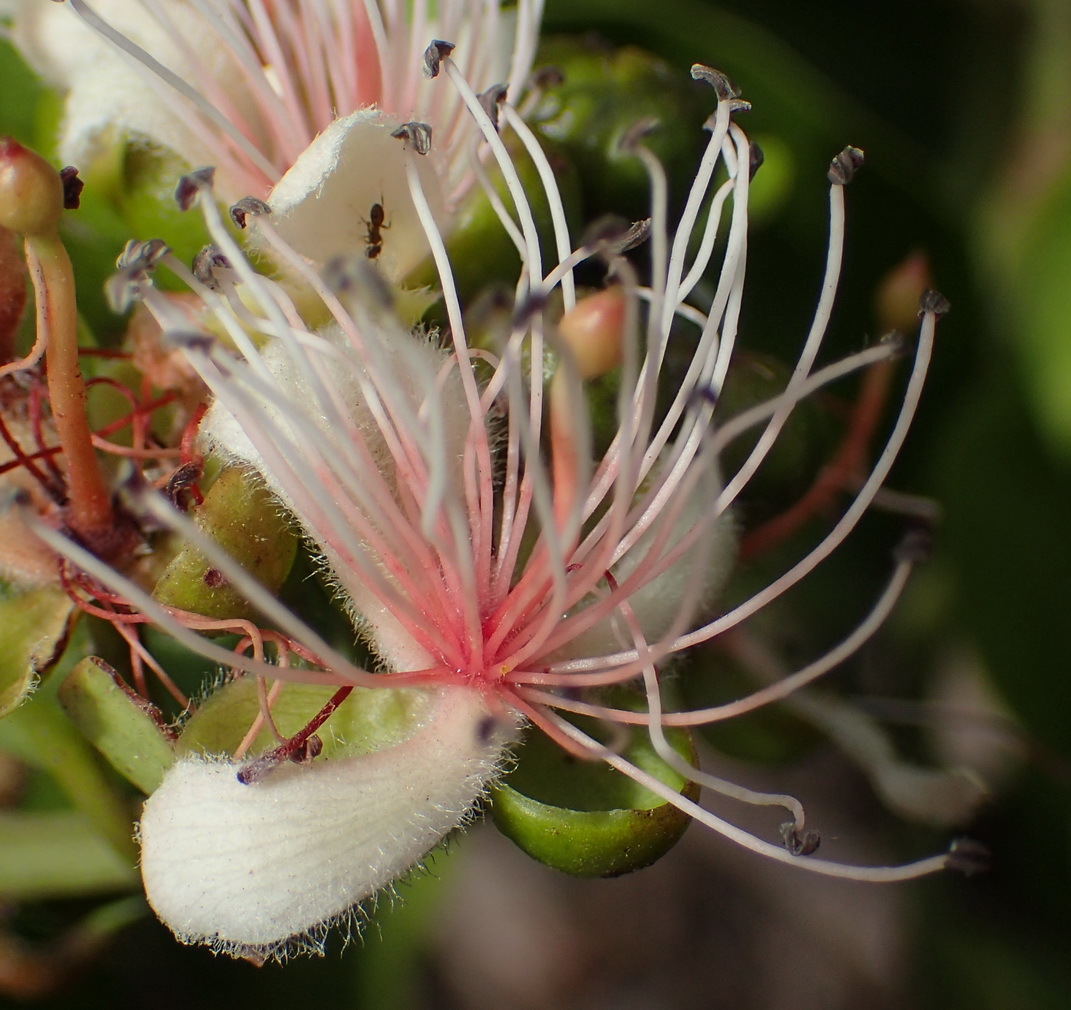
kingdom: Plantae
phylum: Tracheophyta
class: Magnoliopsida
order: Brassicales
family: Capparaceae
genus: Capparis
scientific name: Capparis sepiaria
